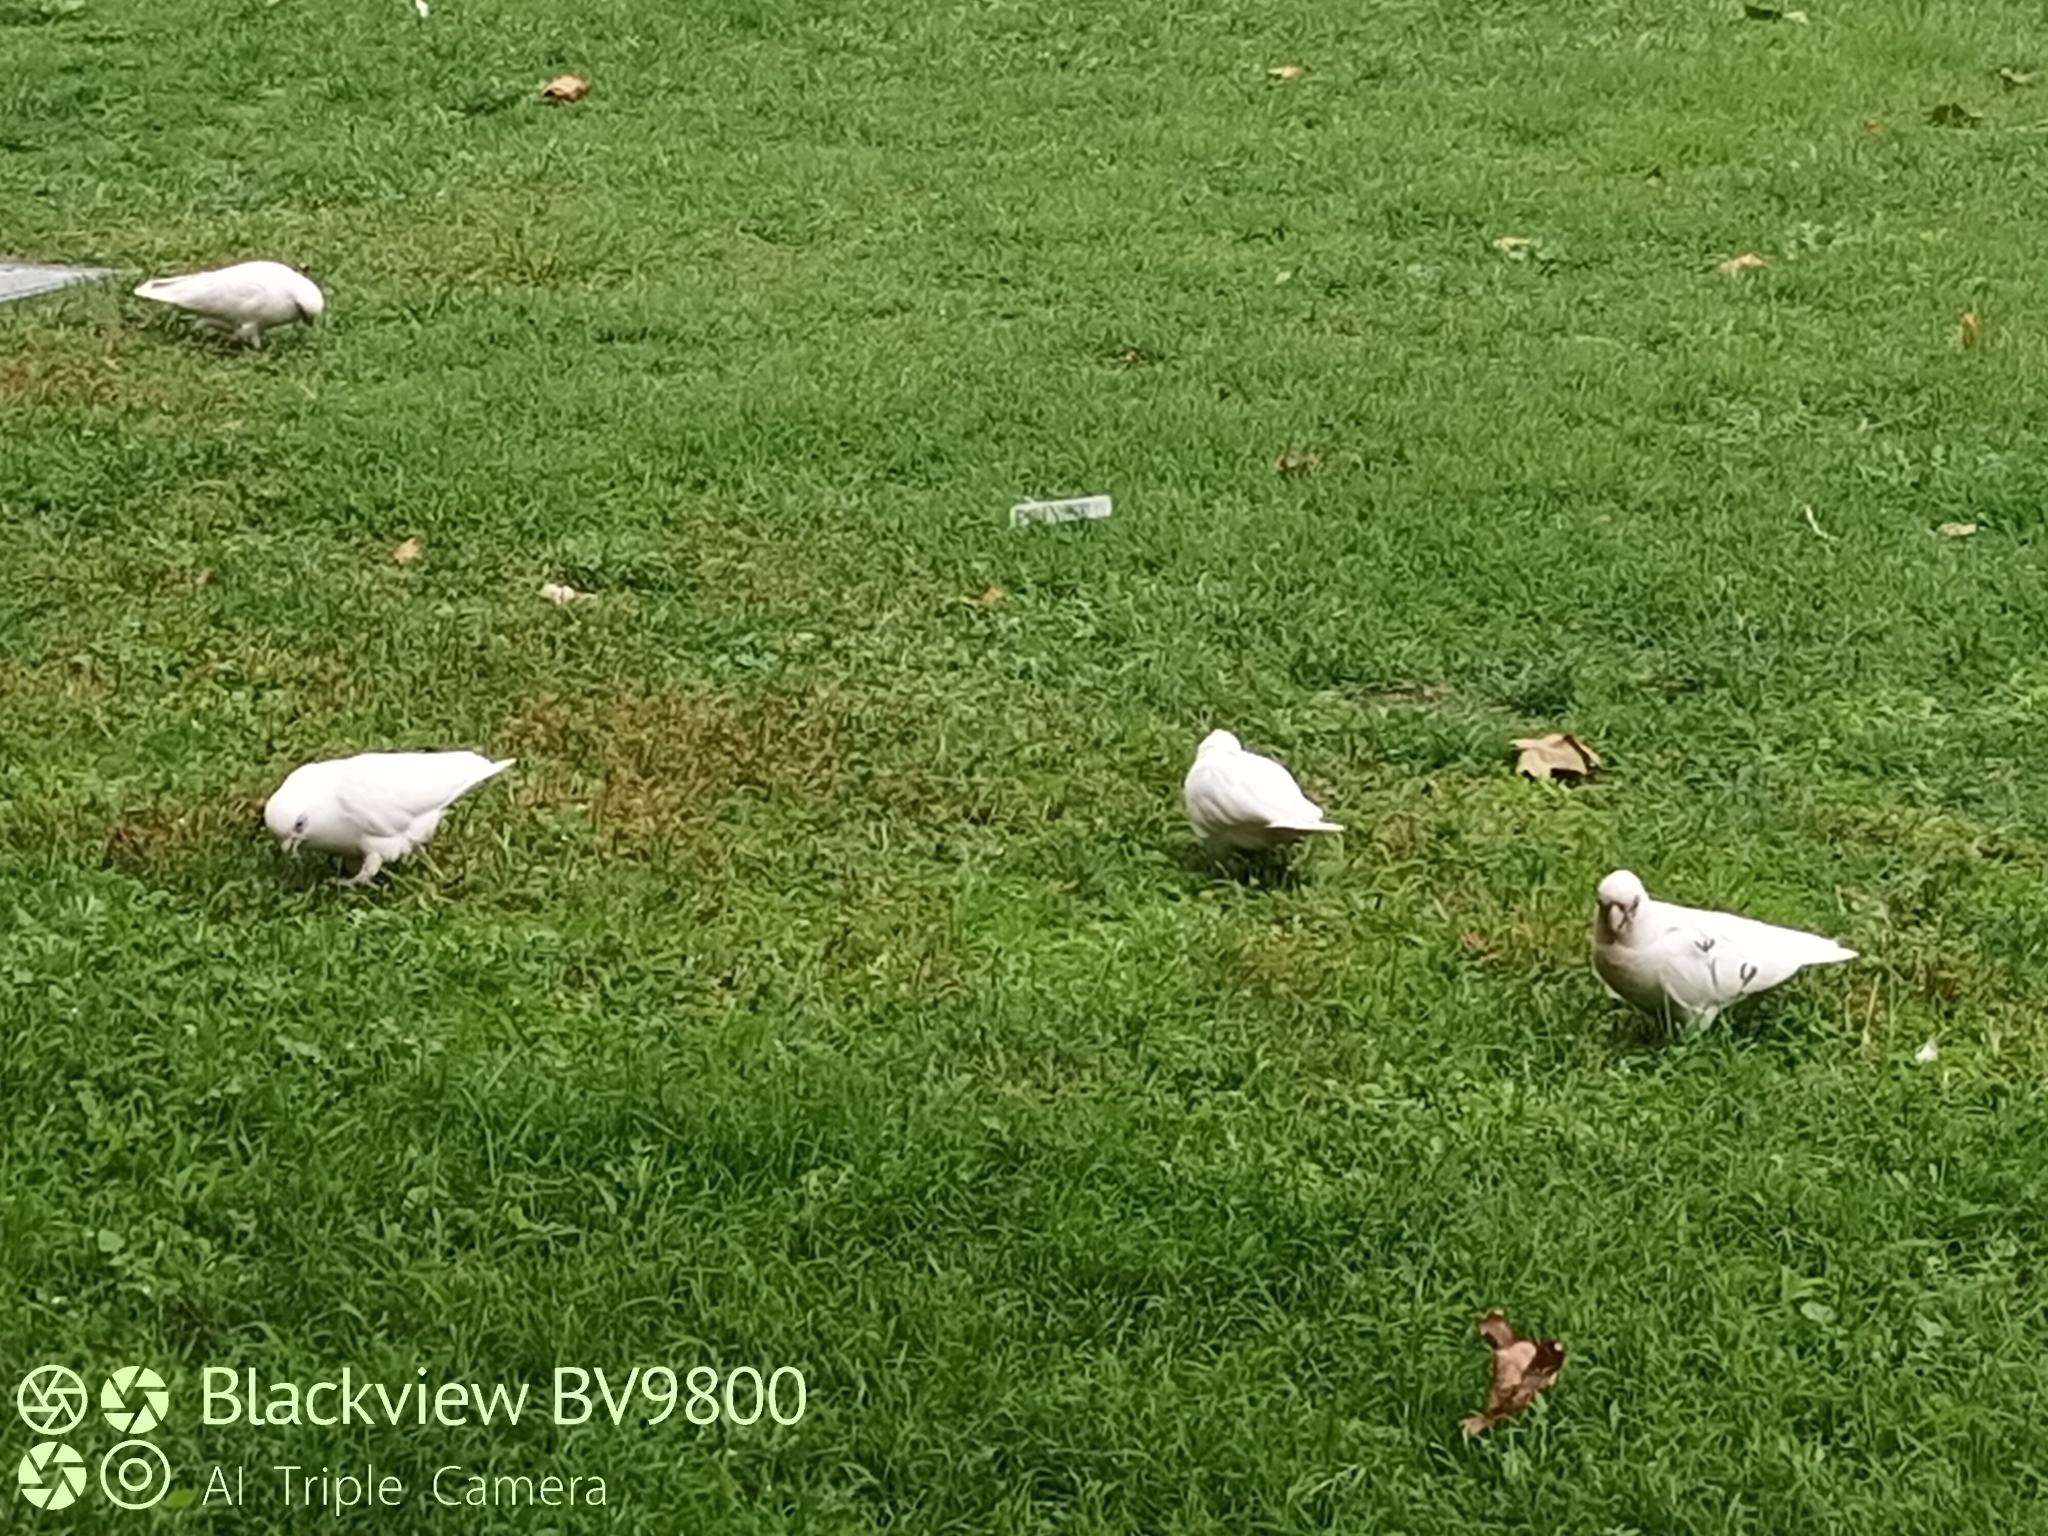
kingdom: Animalia
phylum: Chordata
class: Aves
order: Psittaciformes
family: Psittacidae
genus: Cacatua
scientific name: Cacatua sanguinea
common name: Little corella
